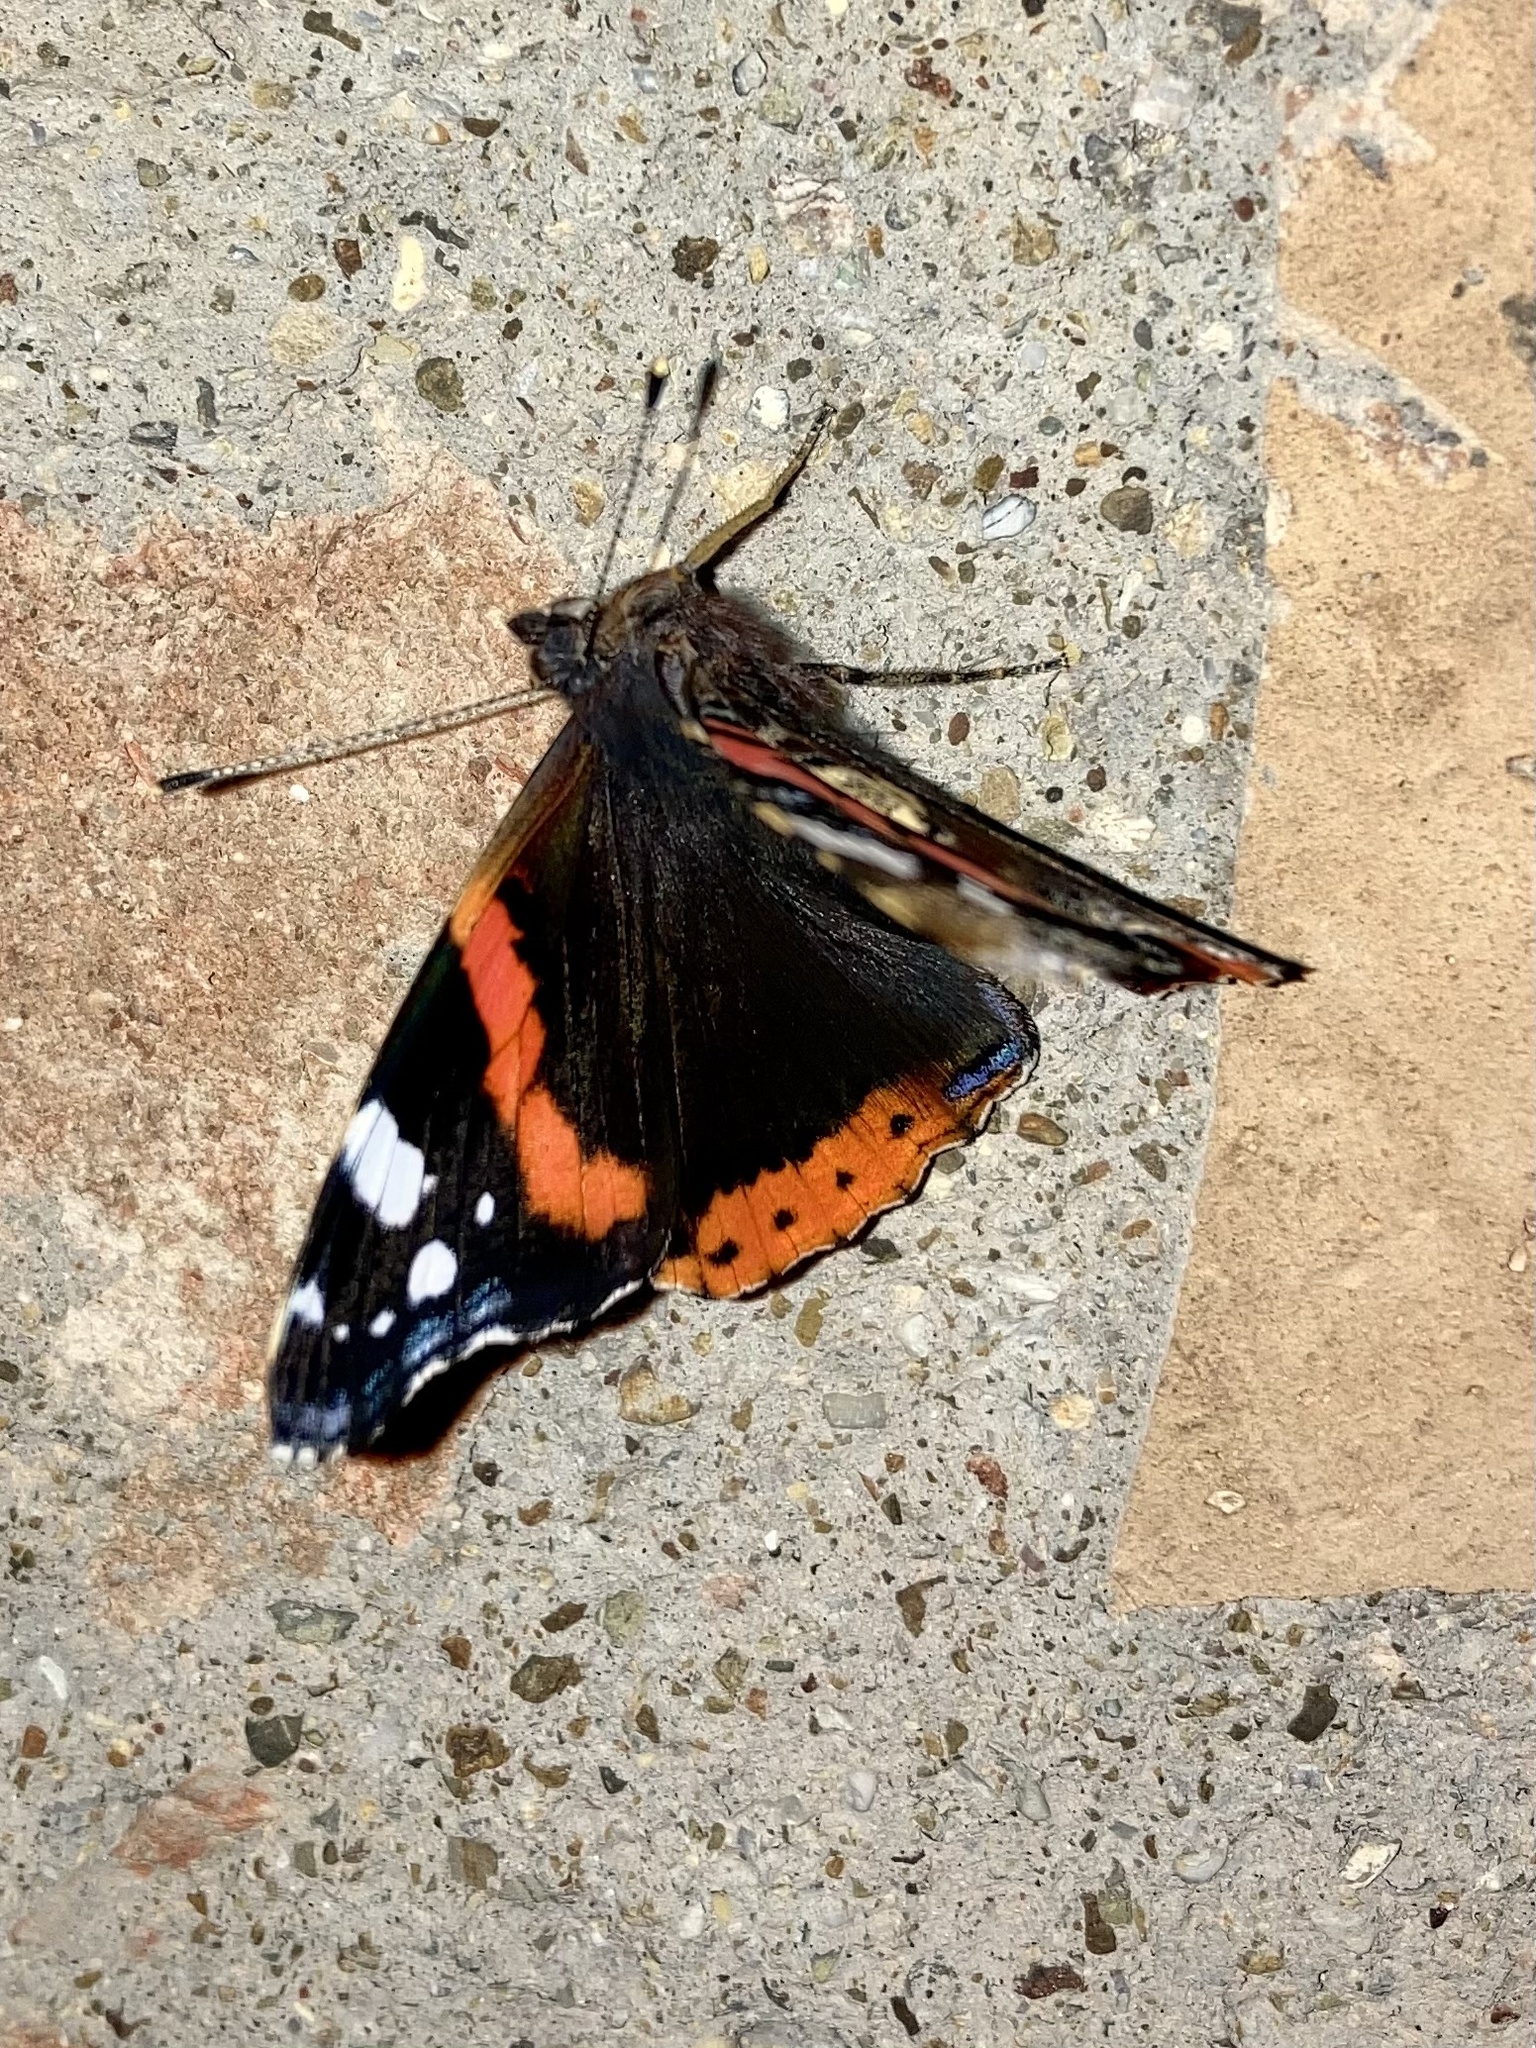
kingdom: Animalia
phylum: Arthropoda
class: Insecta
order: Lepidoptera
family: Nymphalidae
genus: Vanessa
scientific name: Vanessa atalanta
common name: Red admiral
